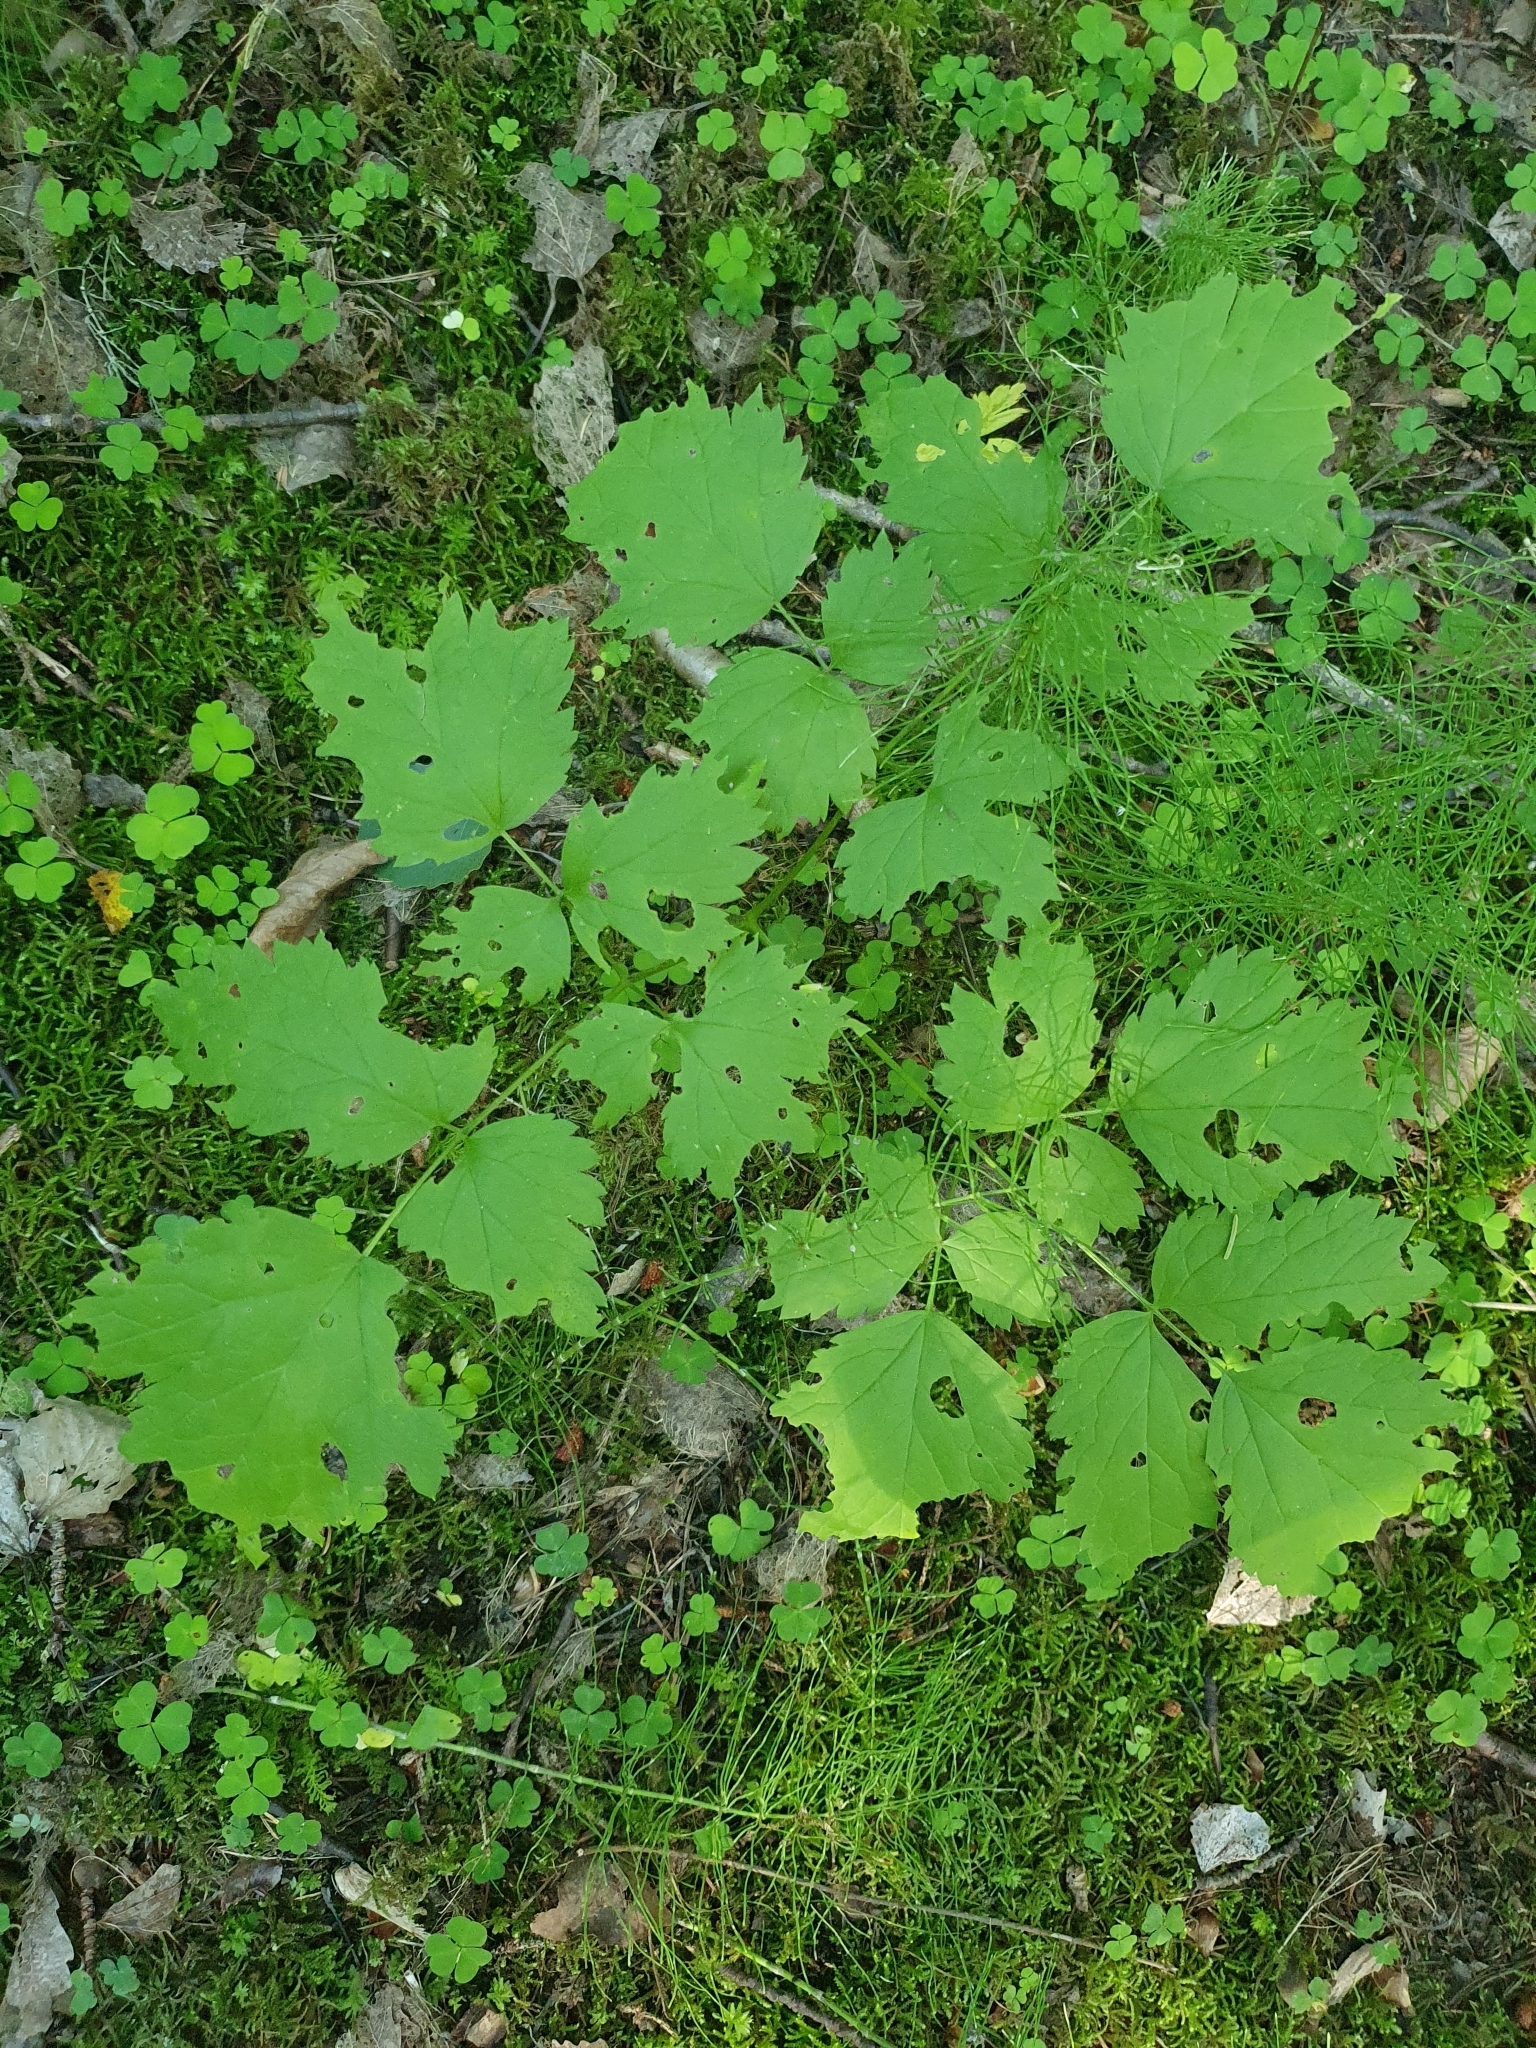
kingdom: Plantae
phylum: Tracheophyta
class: Magnoliopsida
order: Ranunculales
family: Ranunculaceae
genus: Actaea
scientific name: Actaea spicata
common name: Baneberry
